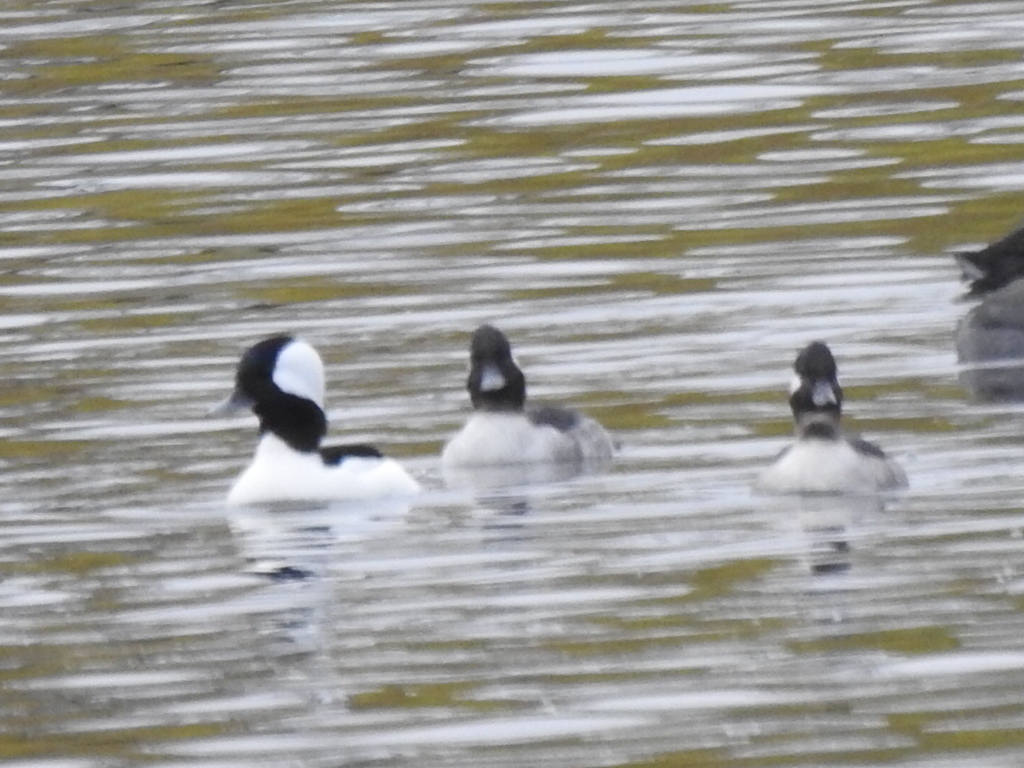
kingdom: Animalia
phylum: Chordata
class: Aves
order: Anseriformes
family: Anatidae
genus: Bucephala
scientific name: Bucephala albeola
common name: Bufflehead
